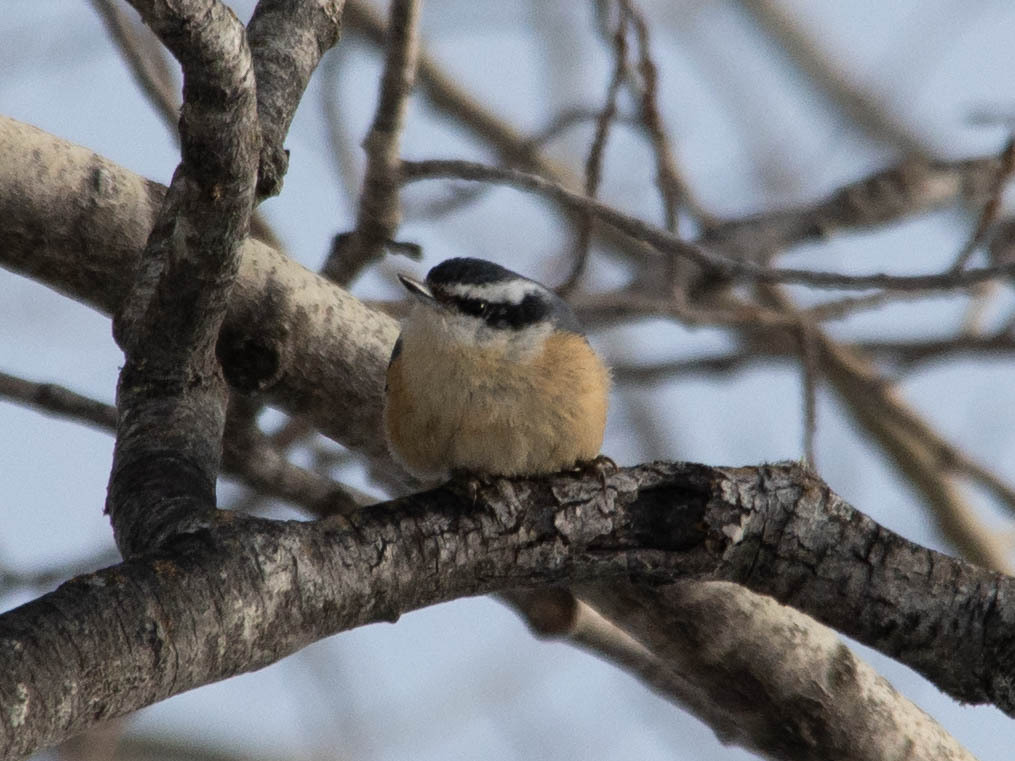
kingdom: Animalia
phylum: Chordata
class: Aves
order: Passeriformes
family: Sittidae
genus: Sitta
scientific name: Sitta canadensis
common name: Red-breasted nuthatch
